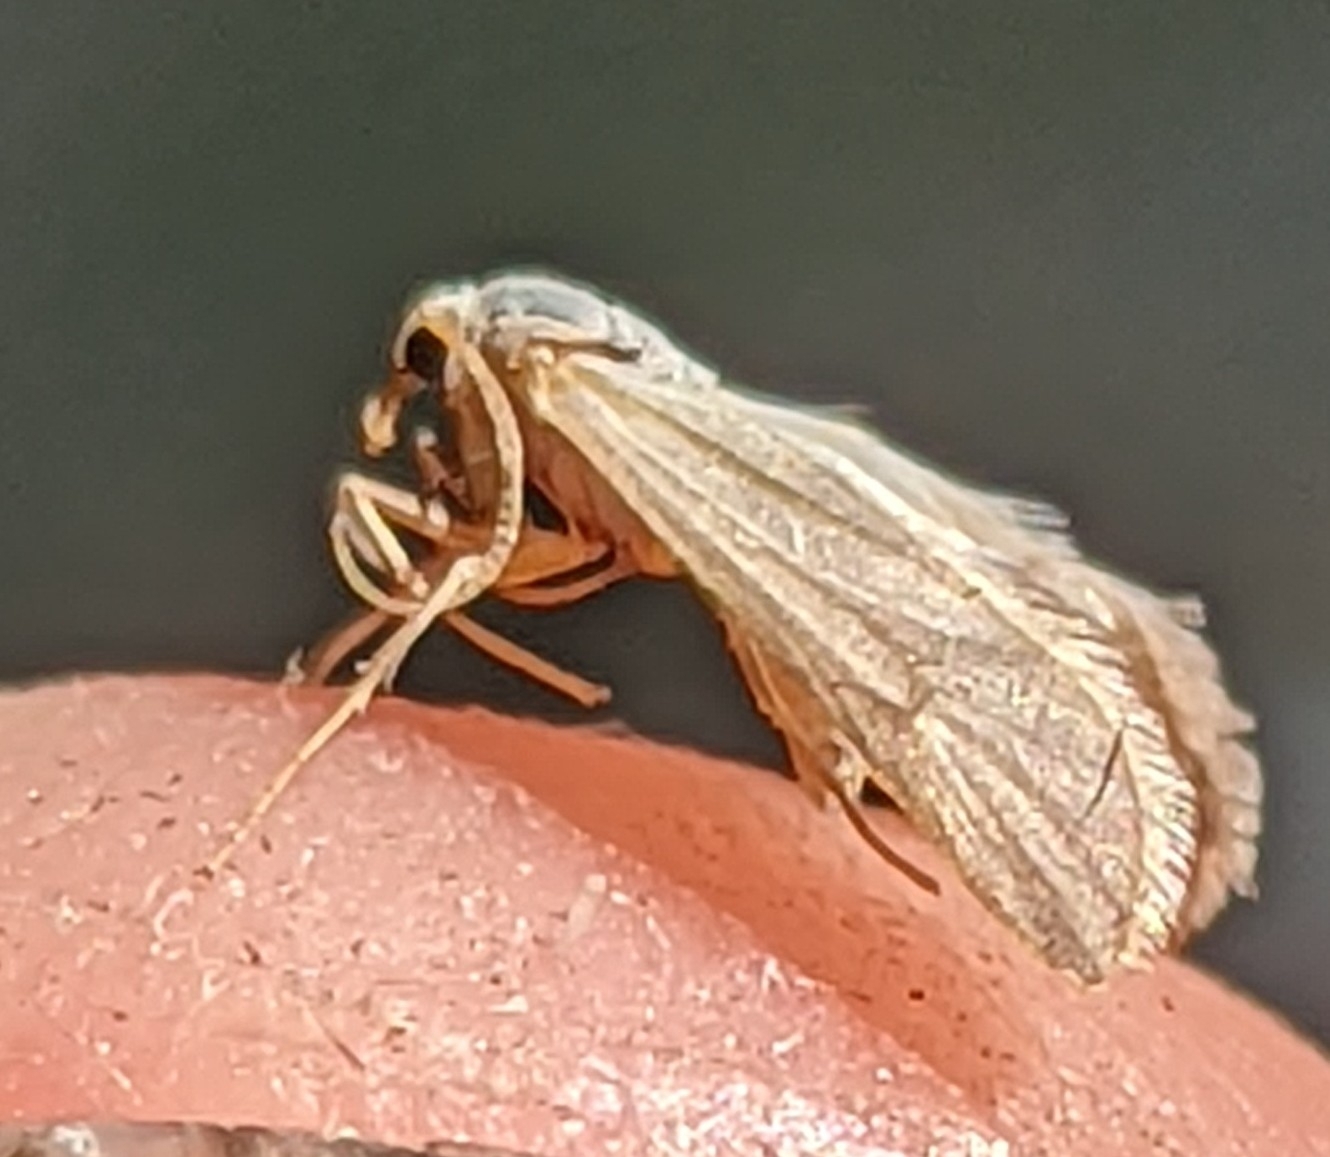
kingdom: Animalia
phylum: Arthropoda
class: Insecta
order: Lepidoptera
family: Crambidae
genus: Acentria
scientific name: Acentria ephemerella
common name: European water moth
